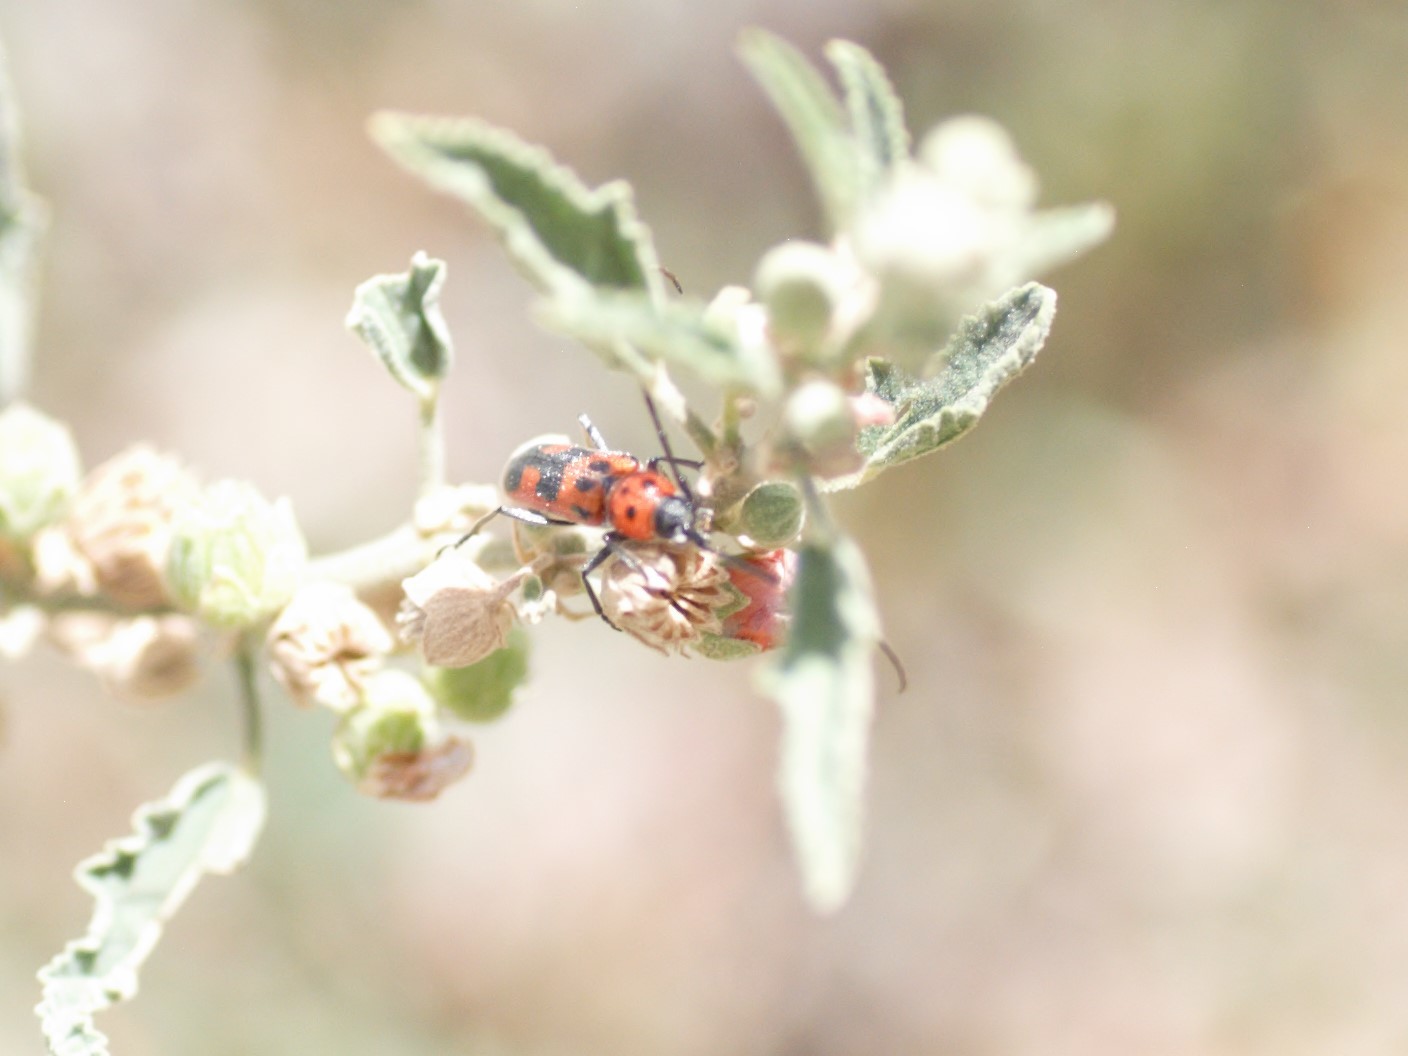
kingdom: Animalia
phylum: Arthropoda
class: Insecta
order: Coleoptera
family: Cerambycidae
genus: Tylosis
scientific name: Tylosis maculatus
